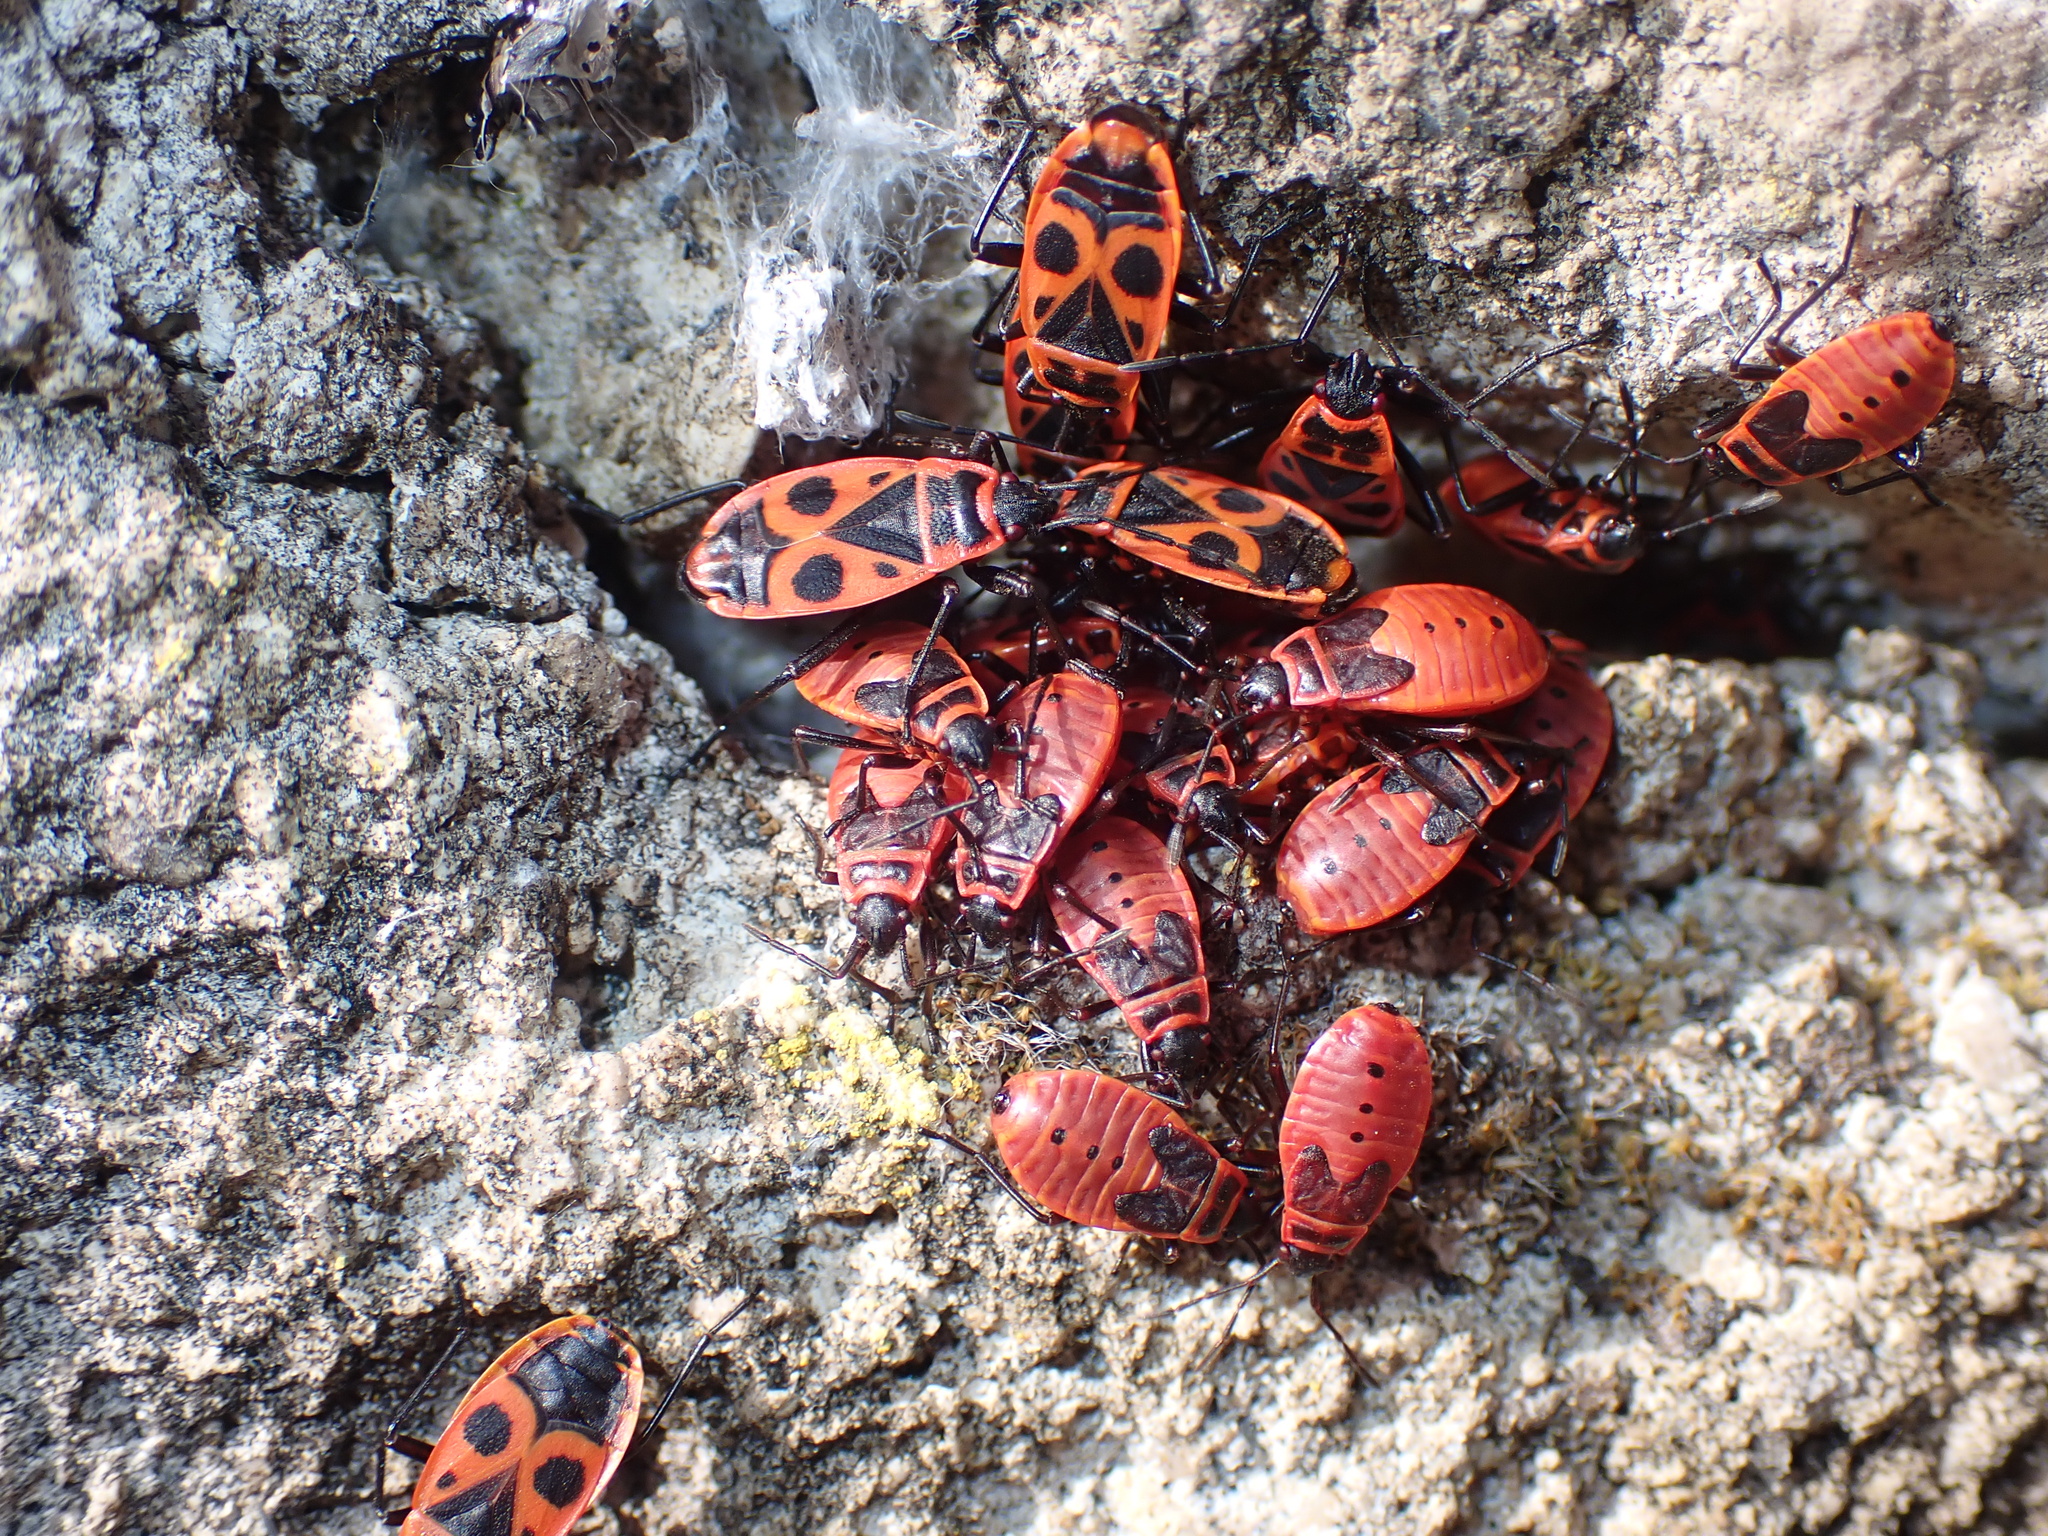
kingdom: Animalia
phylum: Arthropoda
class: Insecta
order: Hemiptera
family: Pyrrhocoridae
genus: Pyrrhocoris
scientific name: Pyrrhocoris apterus
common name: Firebug
